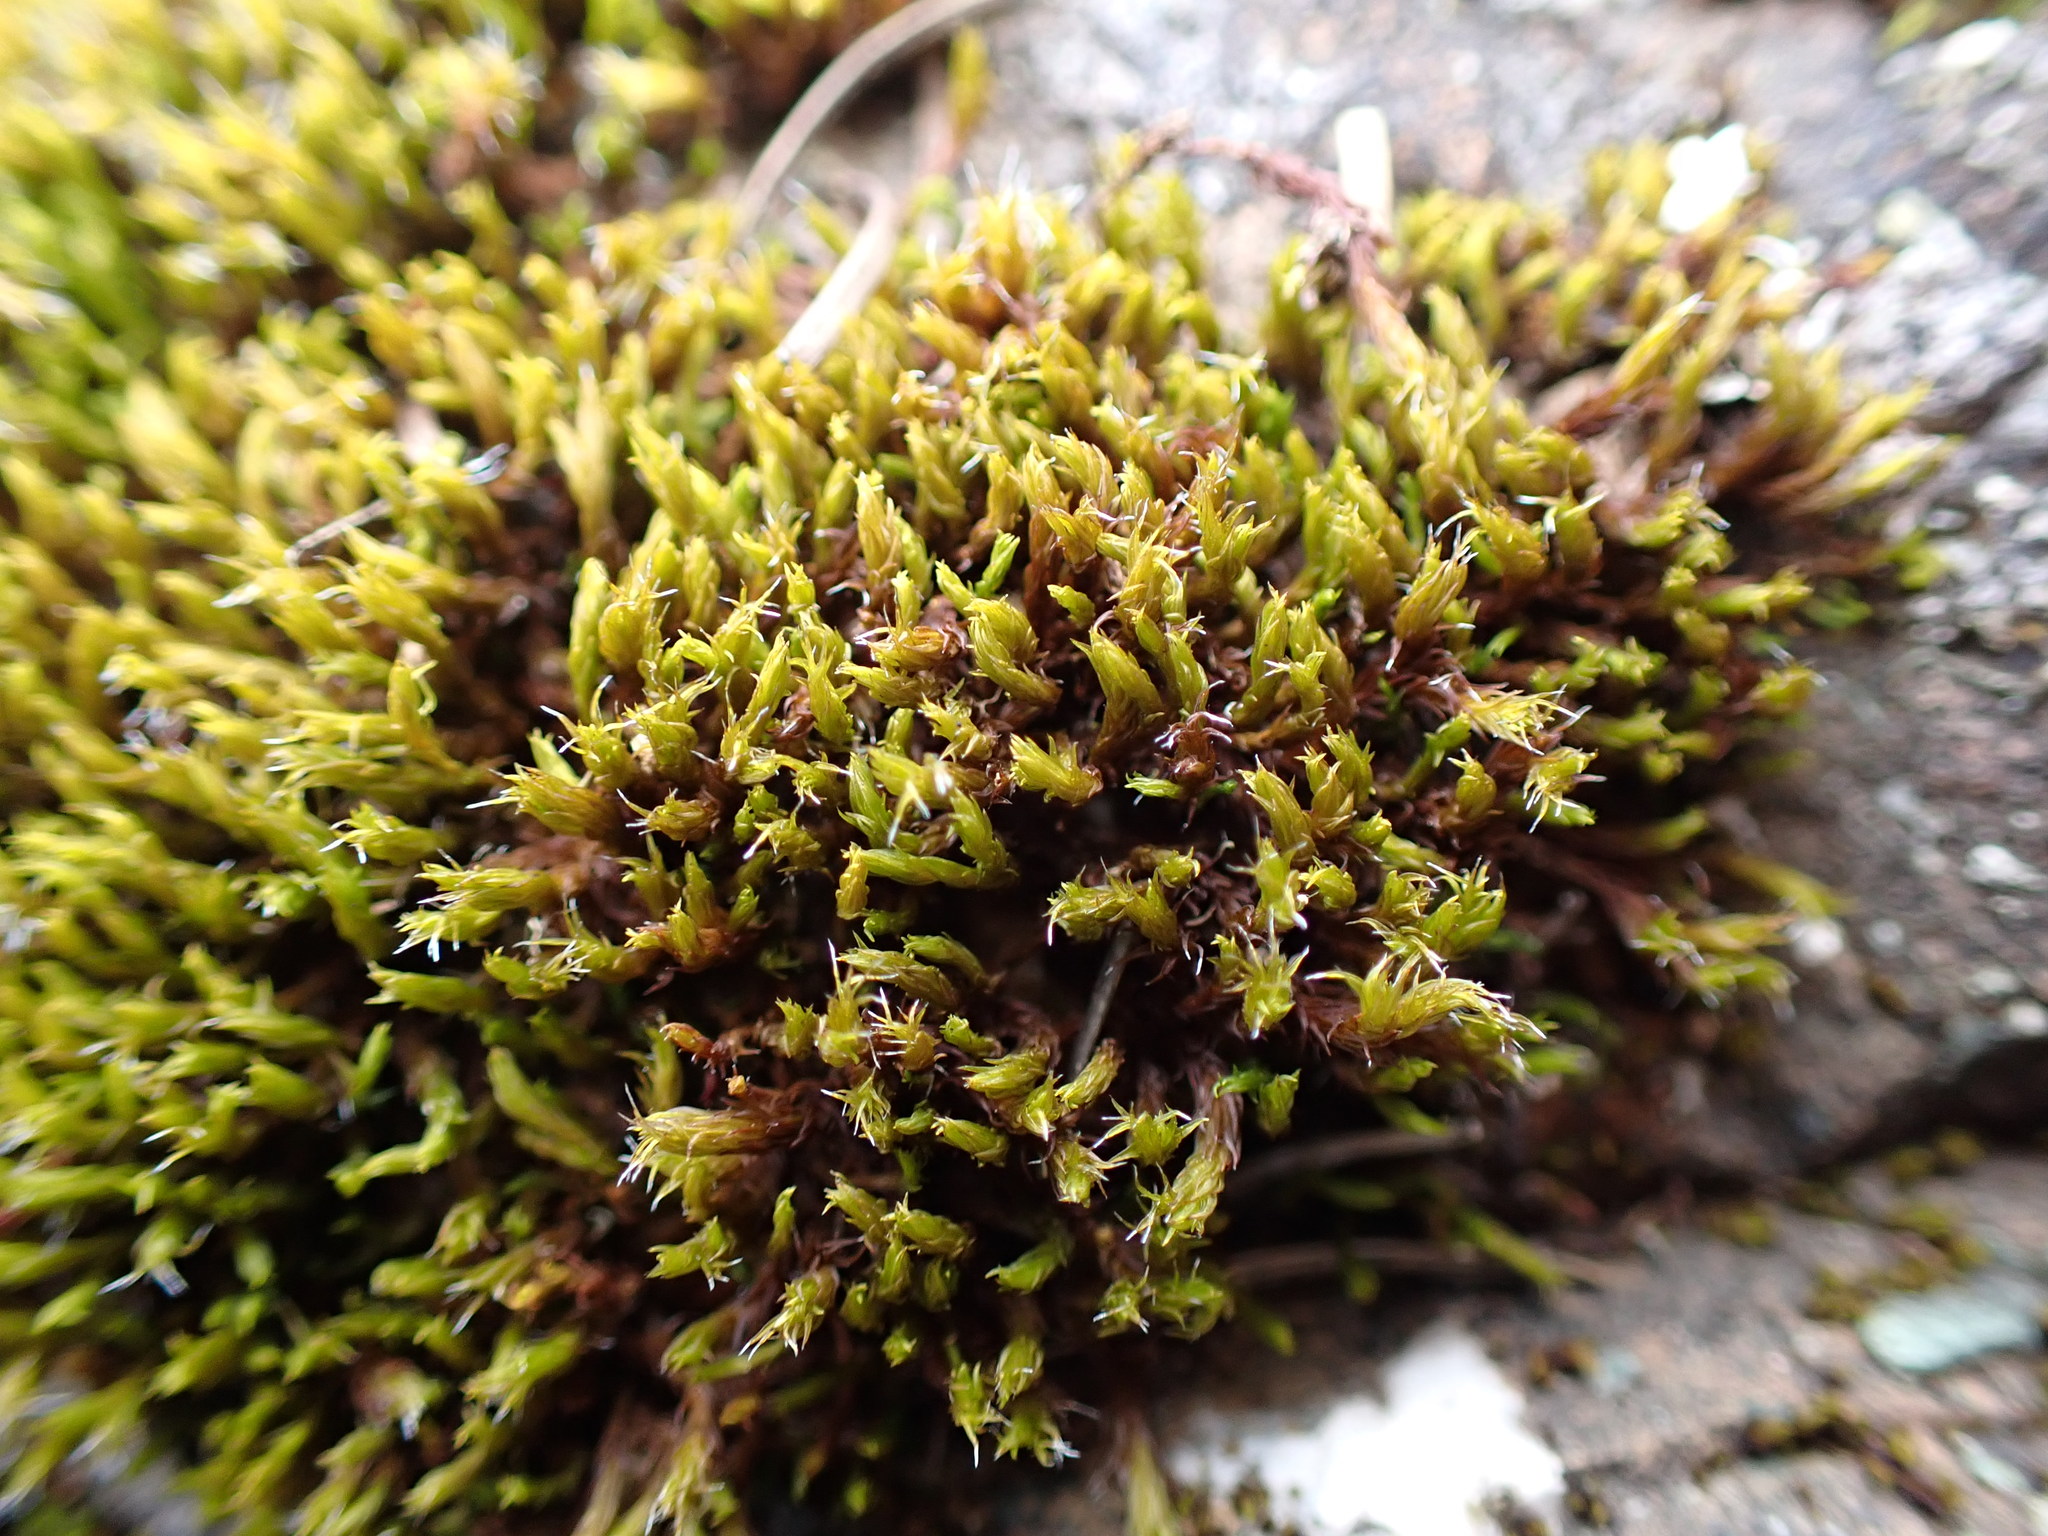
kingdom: Plantae
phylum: Bryophyta
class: Bryopsida
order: Grimmiales
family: Grimmiaceae
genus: Frisvollia
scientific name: Frisvollia varia
